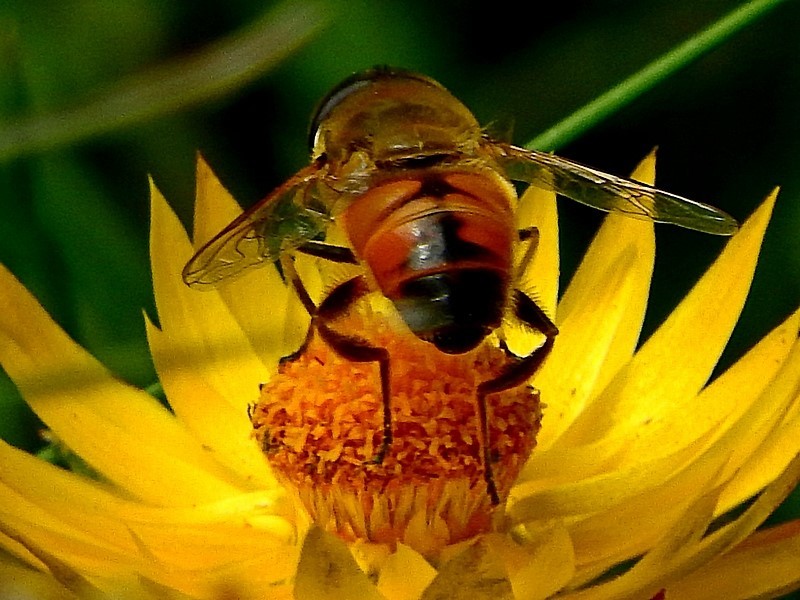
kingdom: Animalia
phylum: Arthropoda
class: Insecta
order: Diptera
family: Syrphidae
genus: Eristalis
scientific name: Eristalis tenax
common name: Drone fly
